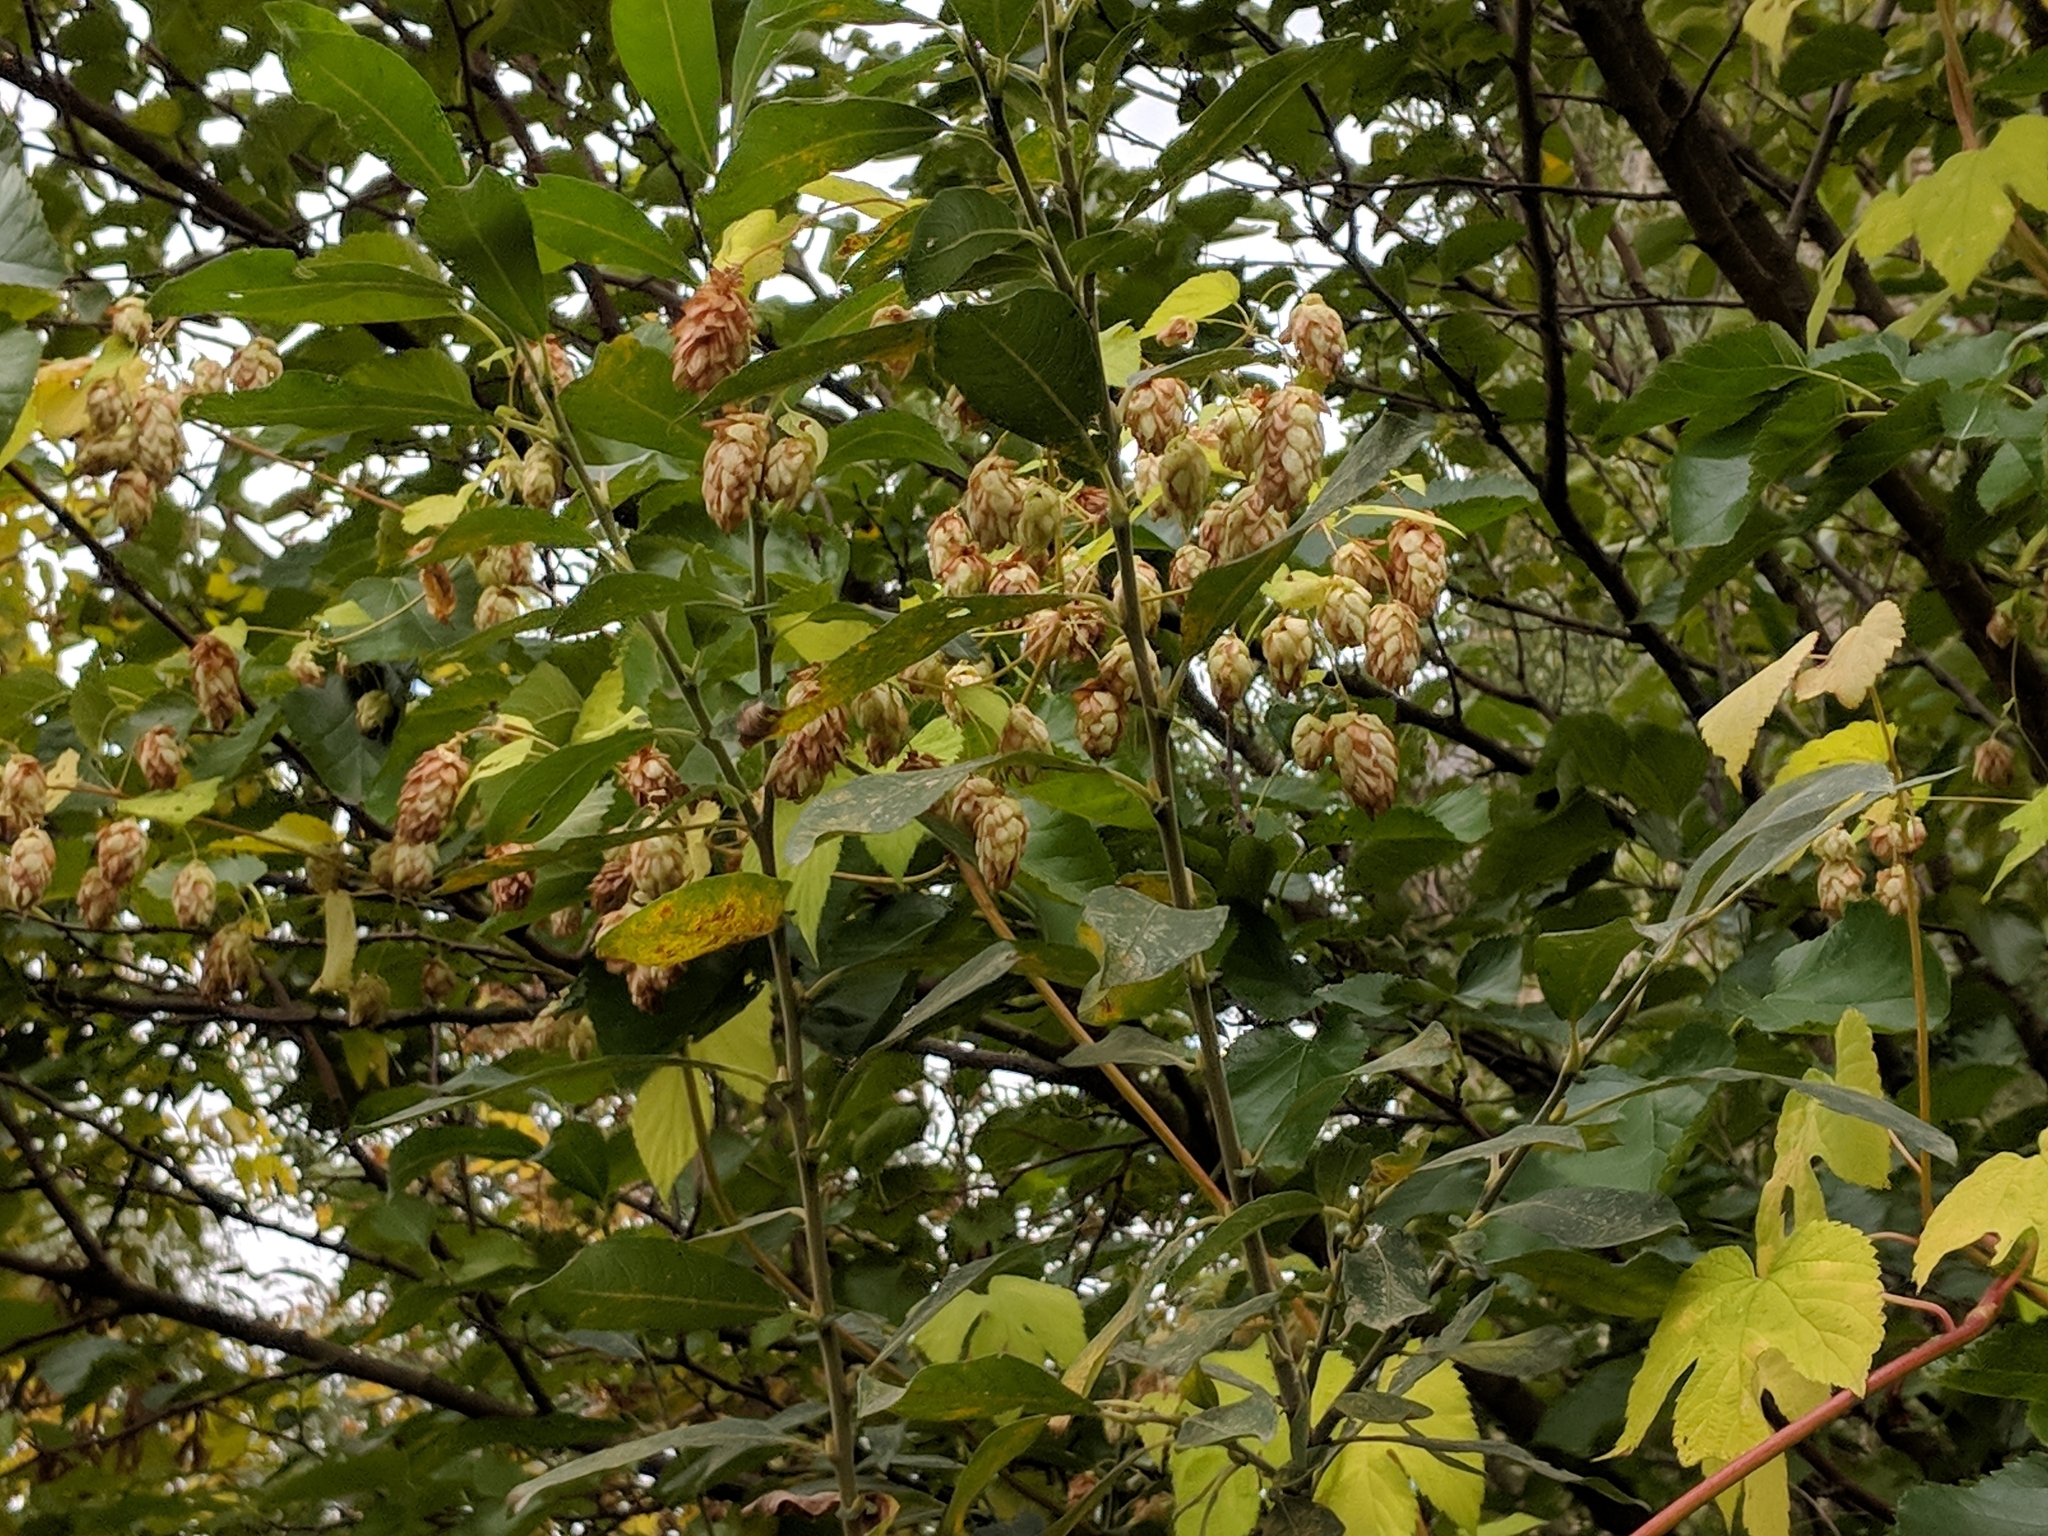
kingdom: Plantae
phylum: Tracheophyta
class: Magnoliopsida
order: Rosales
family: Cannabaceae
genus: Humulus
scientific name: Humulus lupulus
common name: Hop
